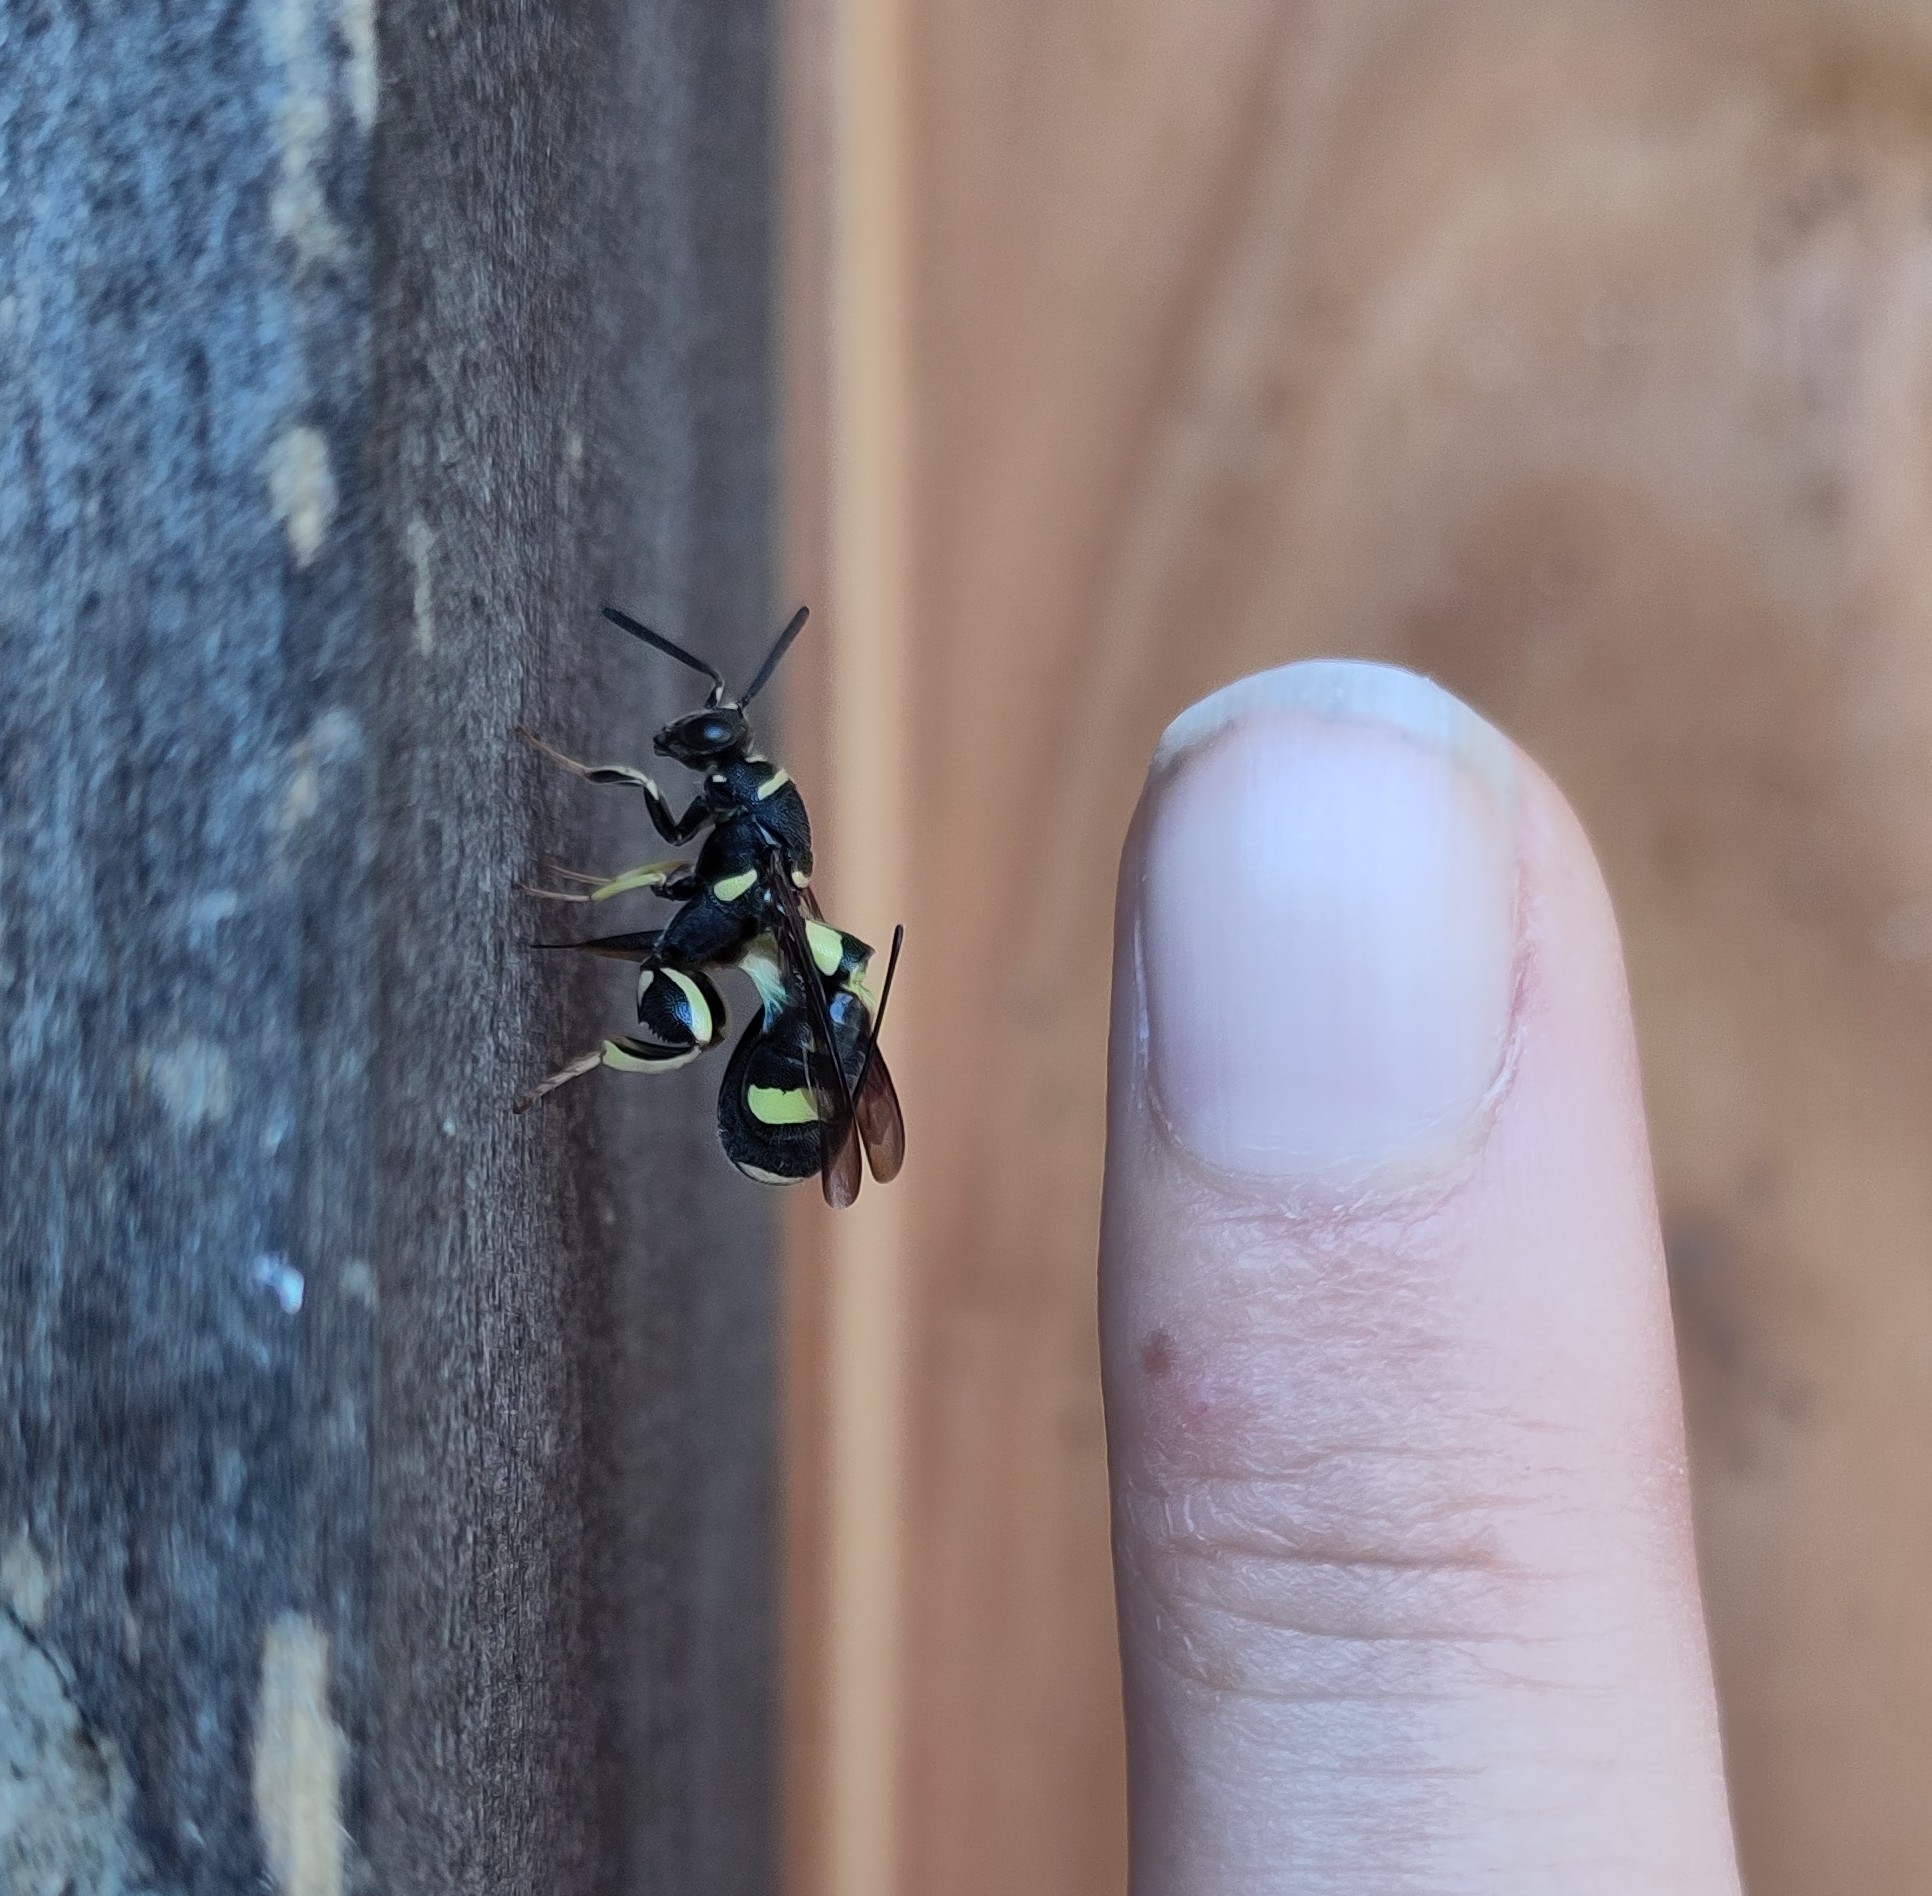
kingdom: Animalia
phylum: Arthropoda
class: Insecta
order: Hymenoptera
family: Leucospidae
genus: Leucospis
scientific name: Leucospis dorsigera
